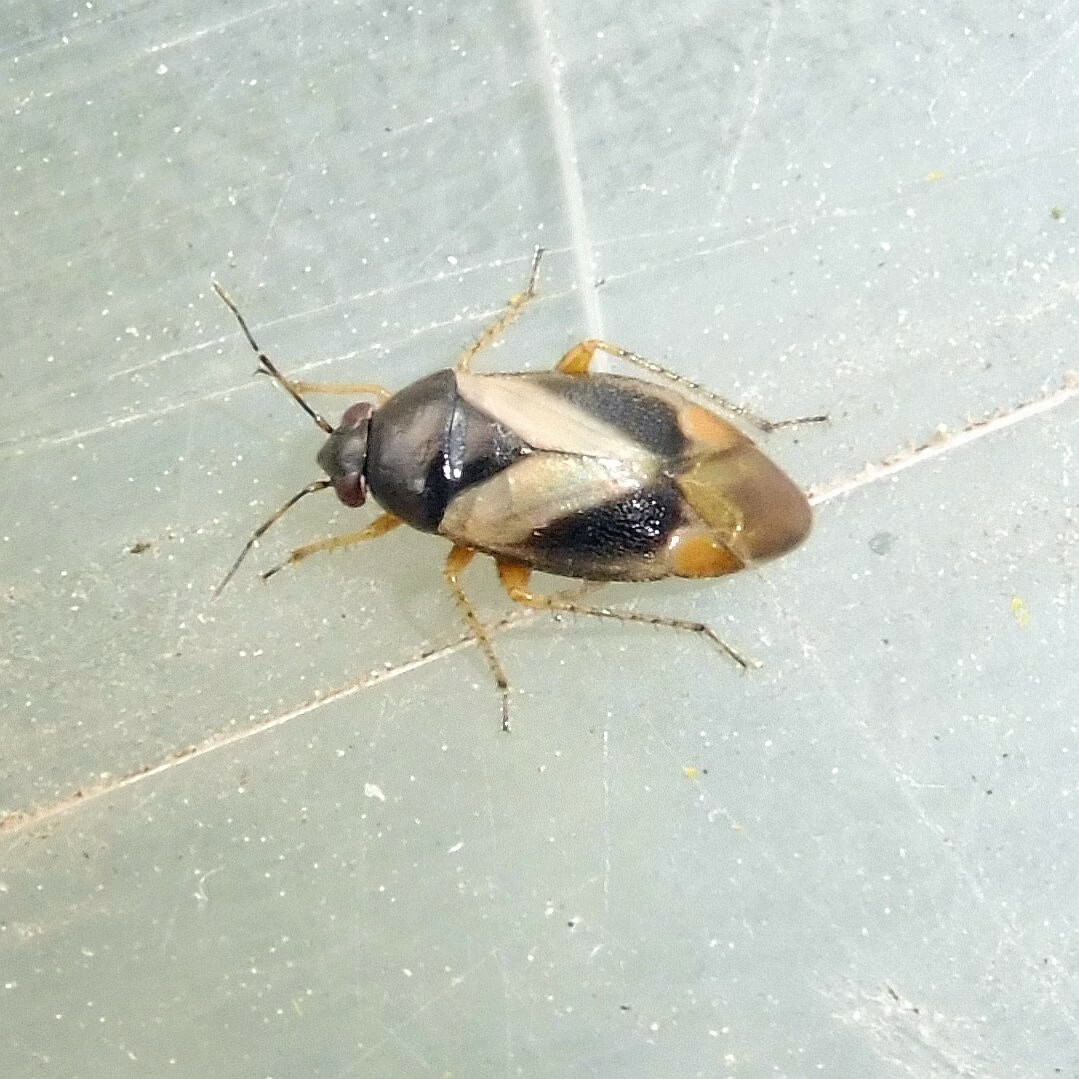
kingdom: Animalia
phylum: Arthropoda
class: Insecta
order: Hemiptera
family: Miridae
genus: Salicarus
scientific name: Salicarus roseri
